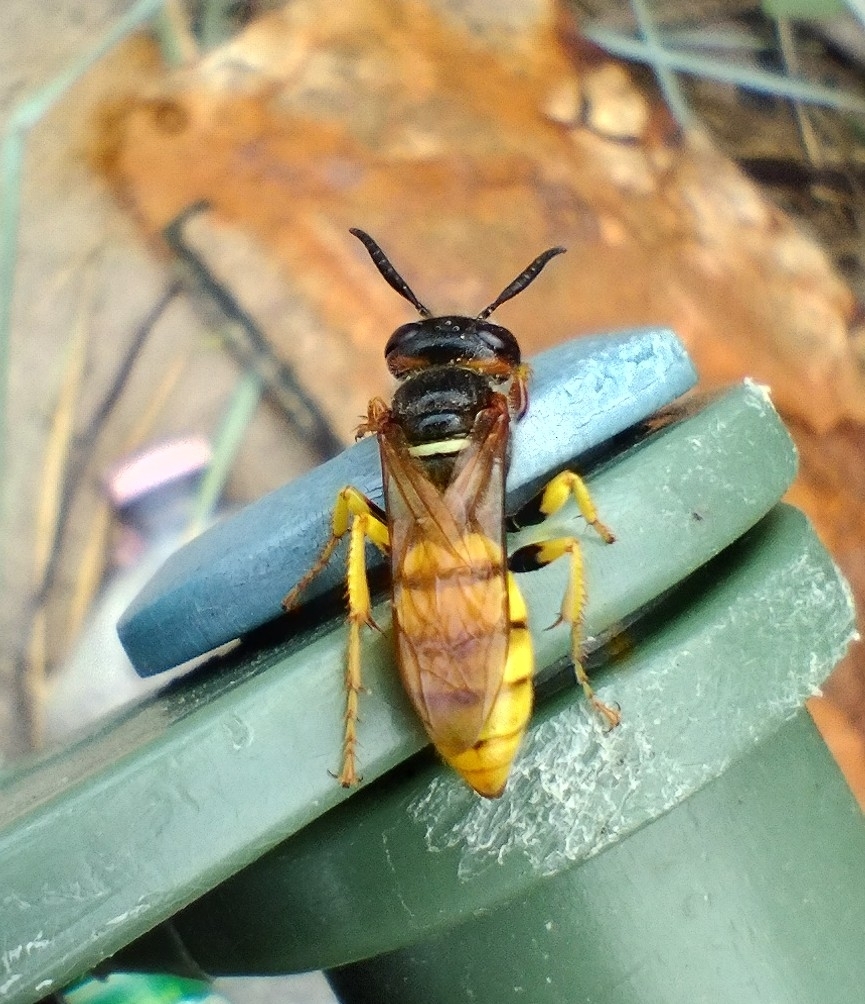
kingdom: Animalia
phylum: Arthropoda
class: Insecta
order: Hymenoptera
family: Crabronidae
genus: Philanthus
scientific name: Philanthus triangulum
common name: Bee wolf
